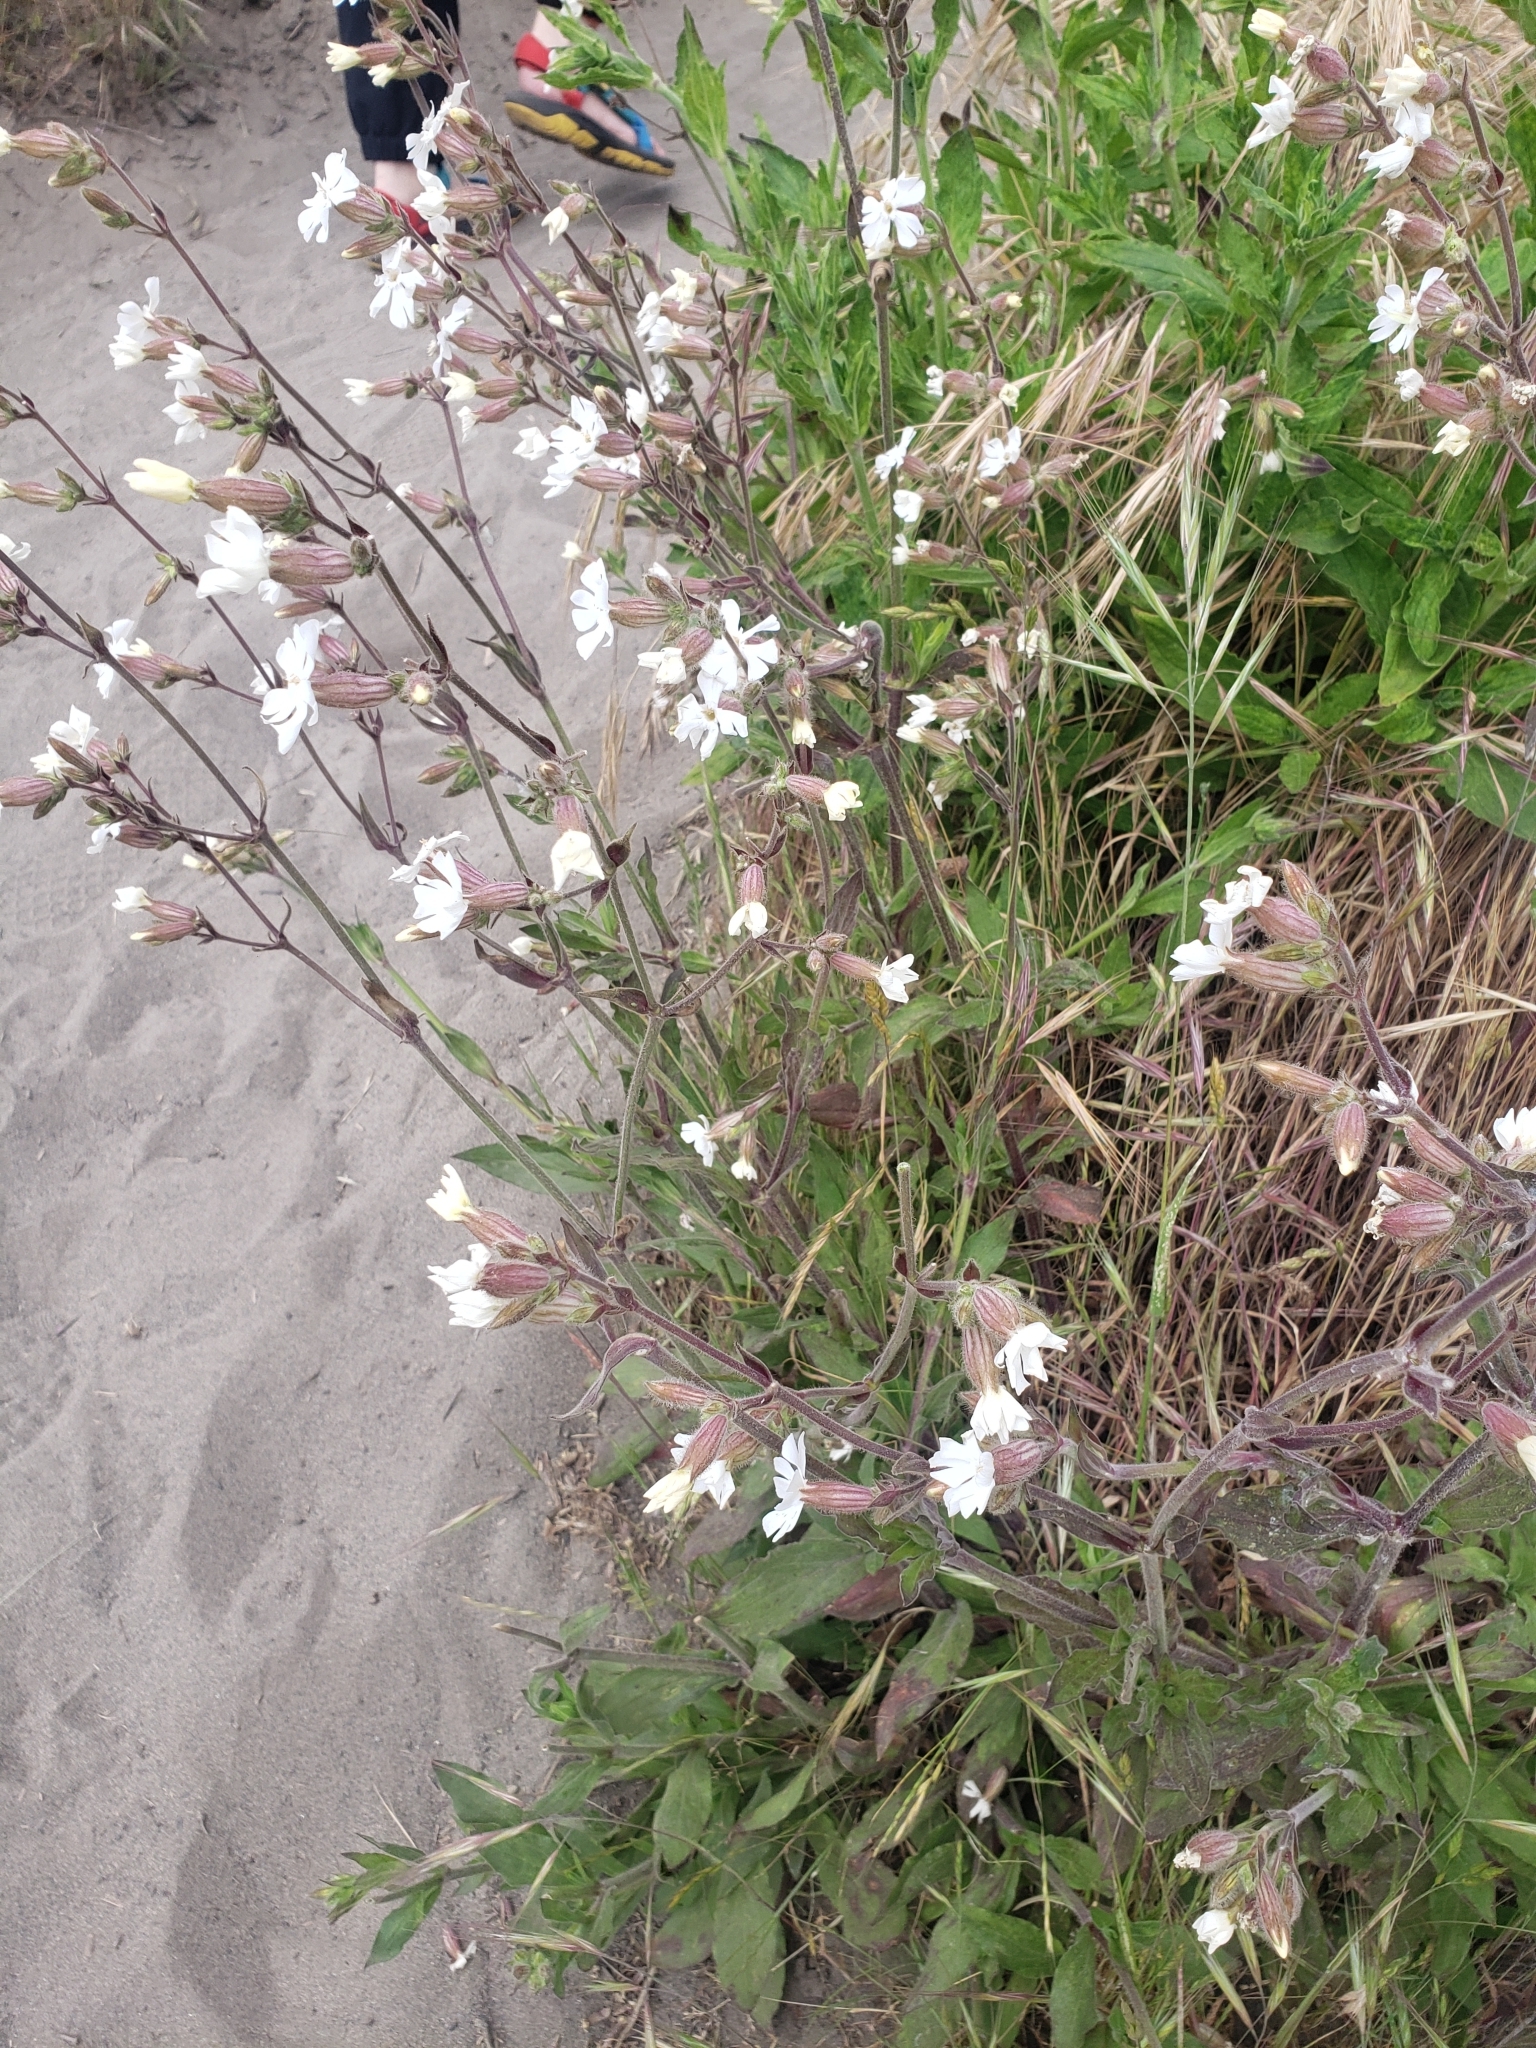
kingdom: Plantae
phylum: Tracheophyta
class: Magnoliopsida
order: Caryophyllales
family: Caryophyllaceae
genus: Silene
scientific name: Silene latifolia
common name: White campion
